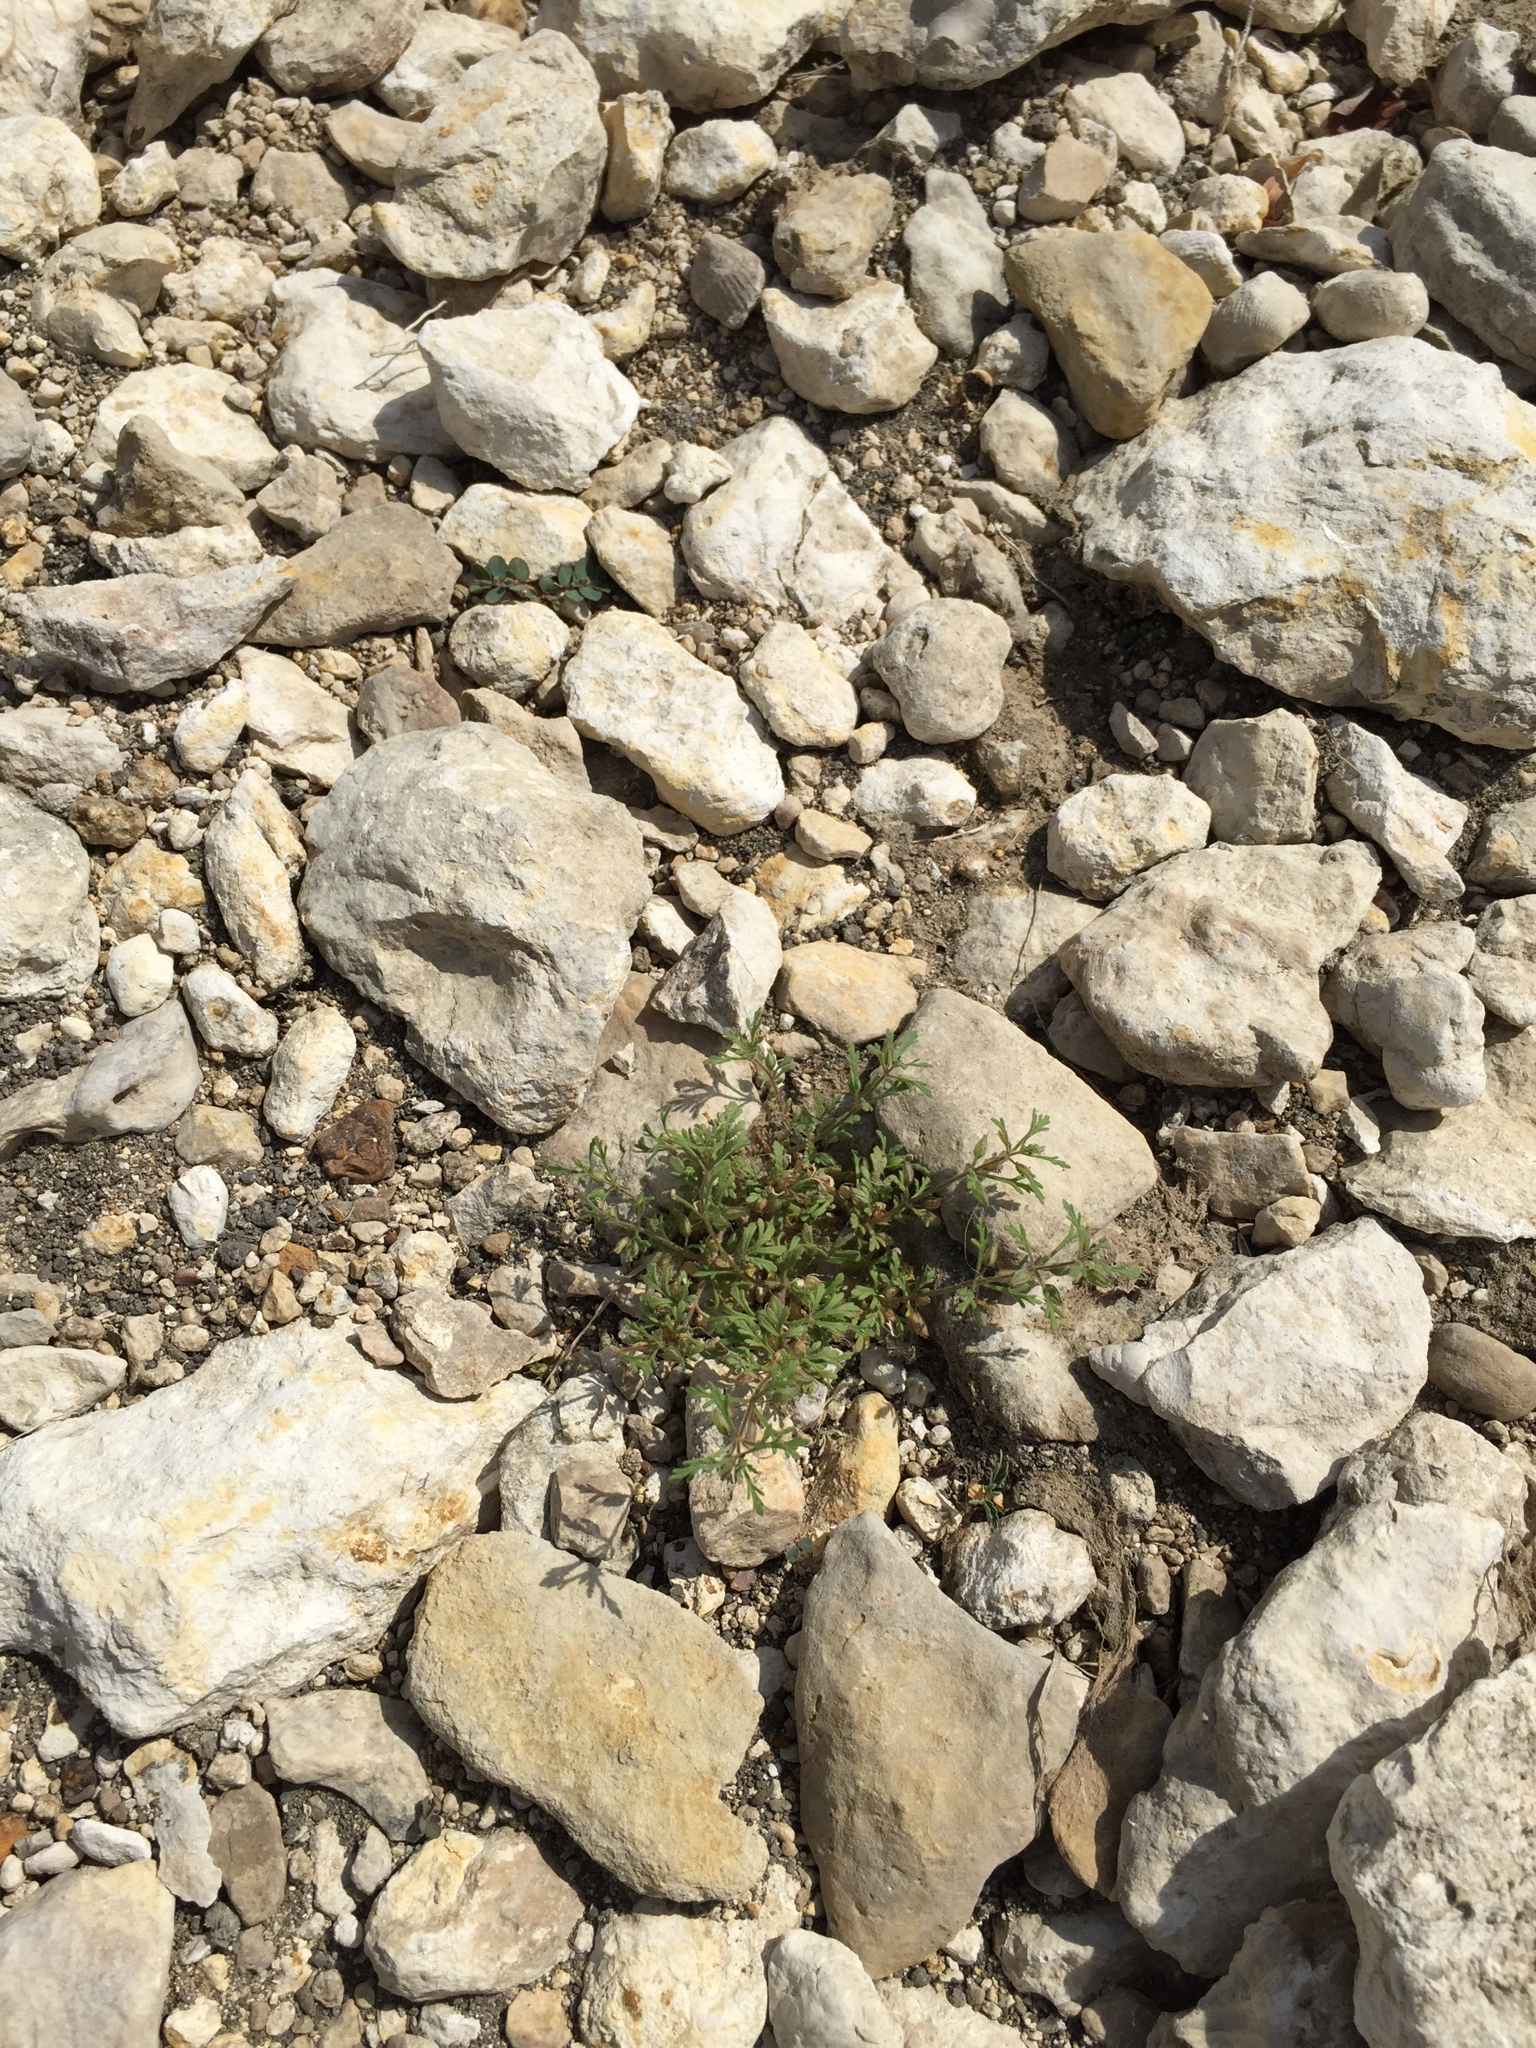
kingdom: Plantae
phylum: Tracheophyta
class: Magnoliopsida
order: Lamiales
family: Plantaginaceae
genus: Leucospora
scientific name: Leucospora multifida
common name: Narrow-leaf paleseed
